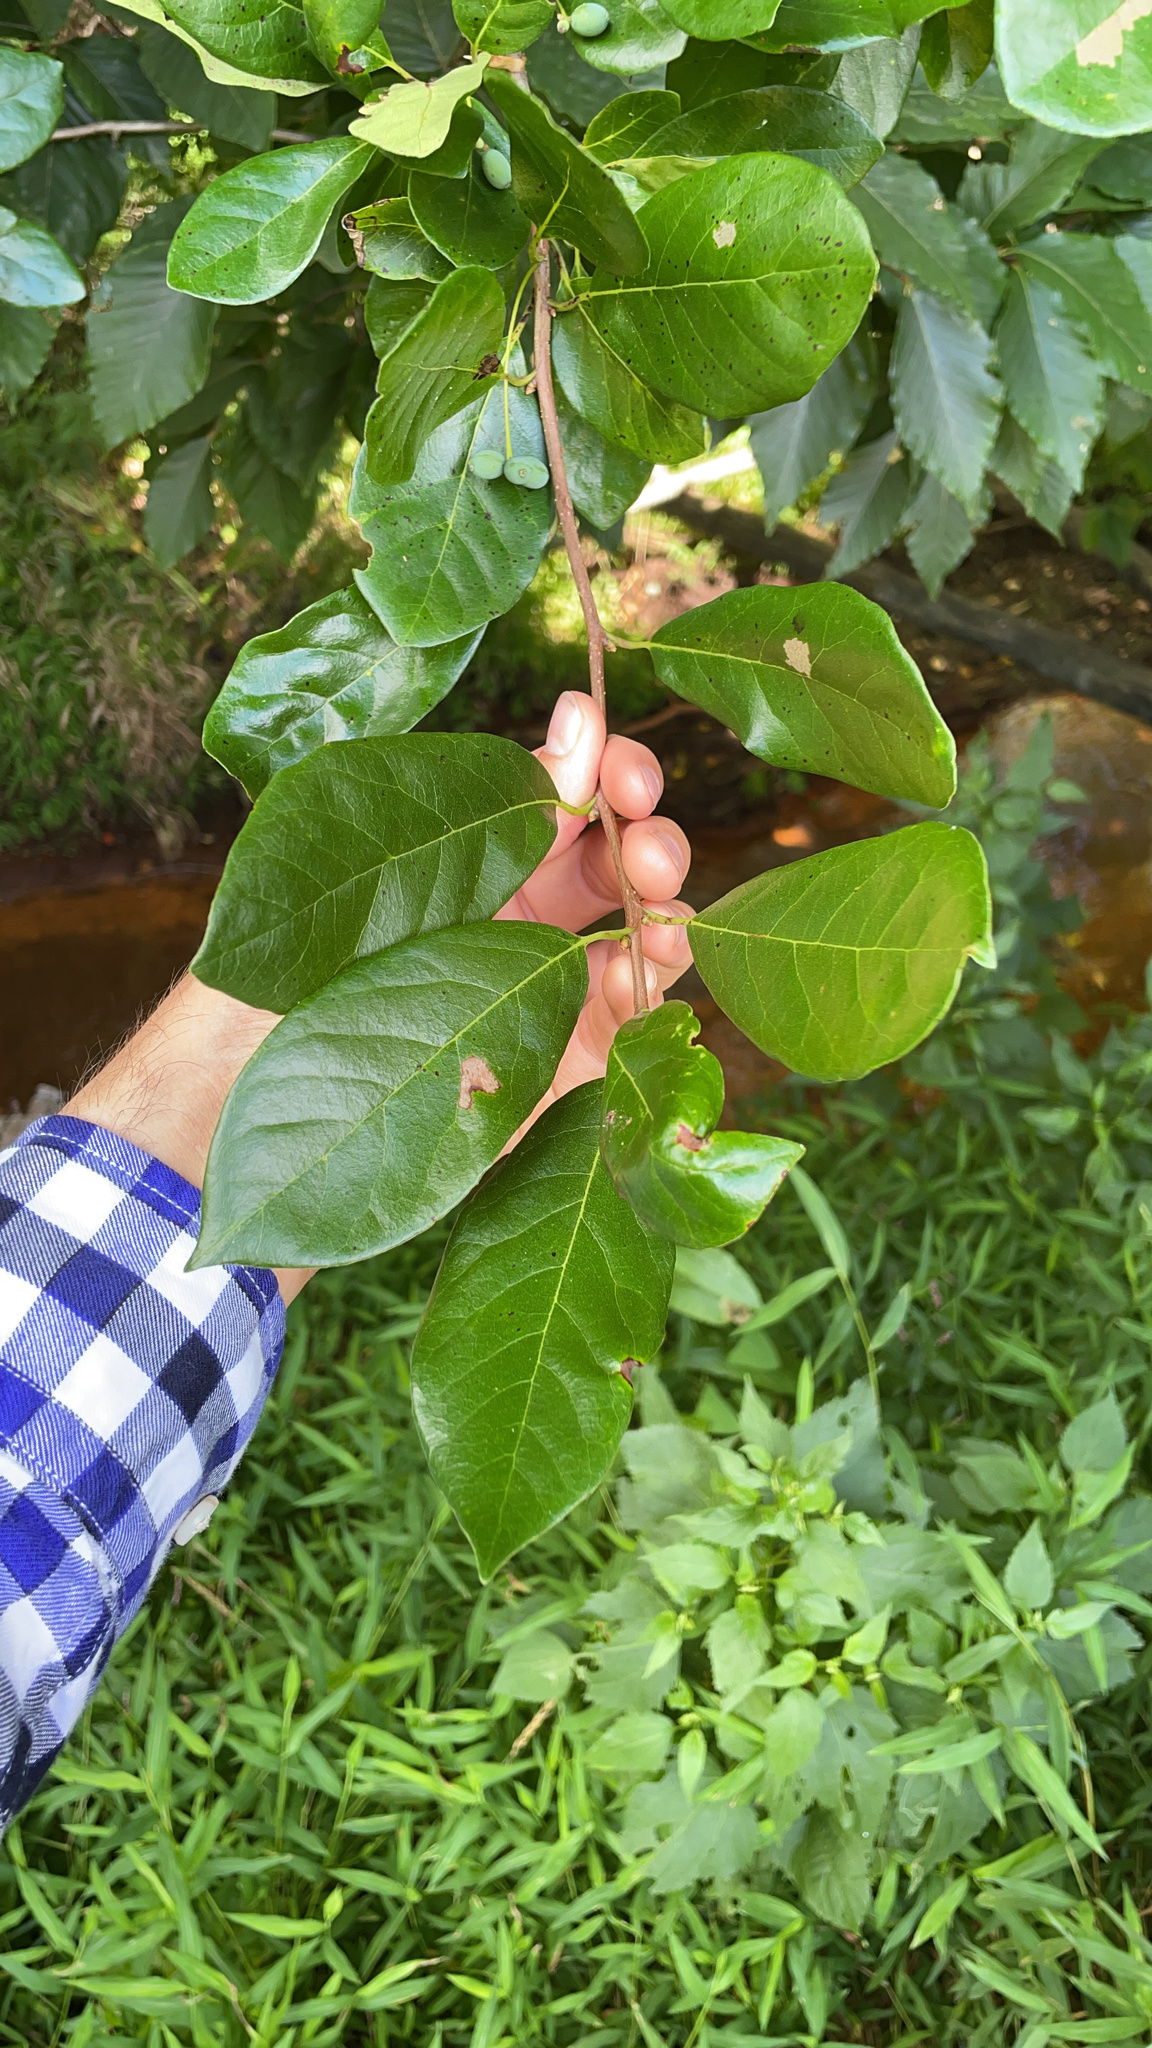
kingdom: Plantae
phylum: Tracheophyta
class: Magnoliopsida
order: Cornales
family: Nyssaceae
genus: Nyssa
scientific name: Nyssa sylvatica
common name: Black tupelo
